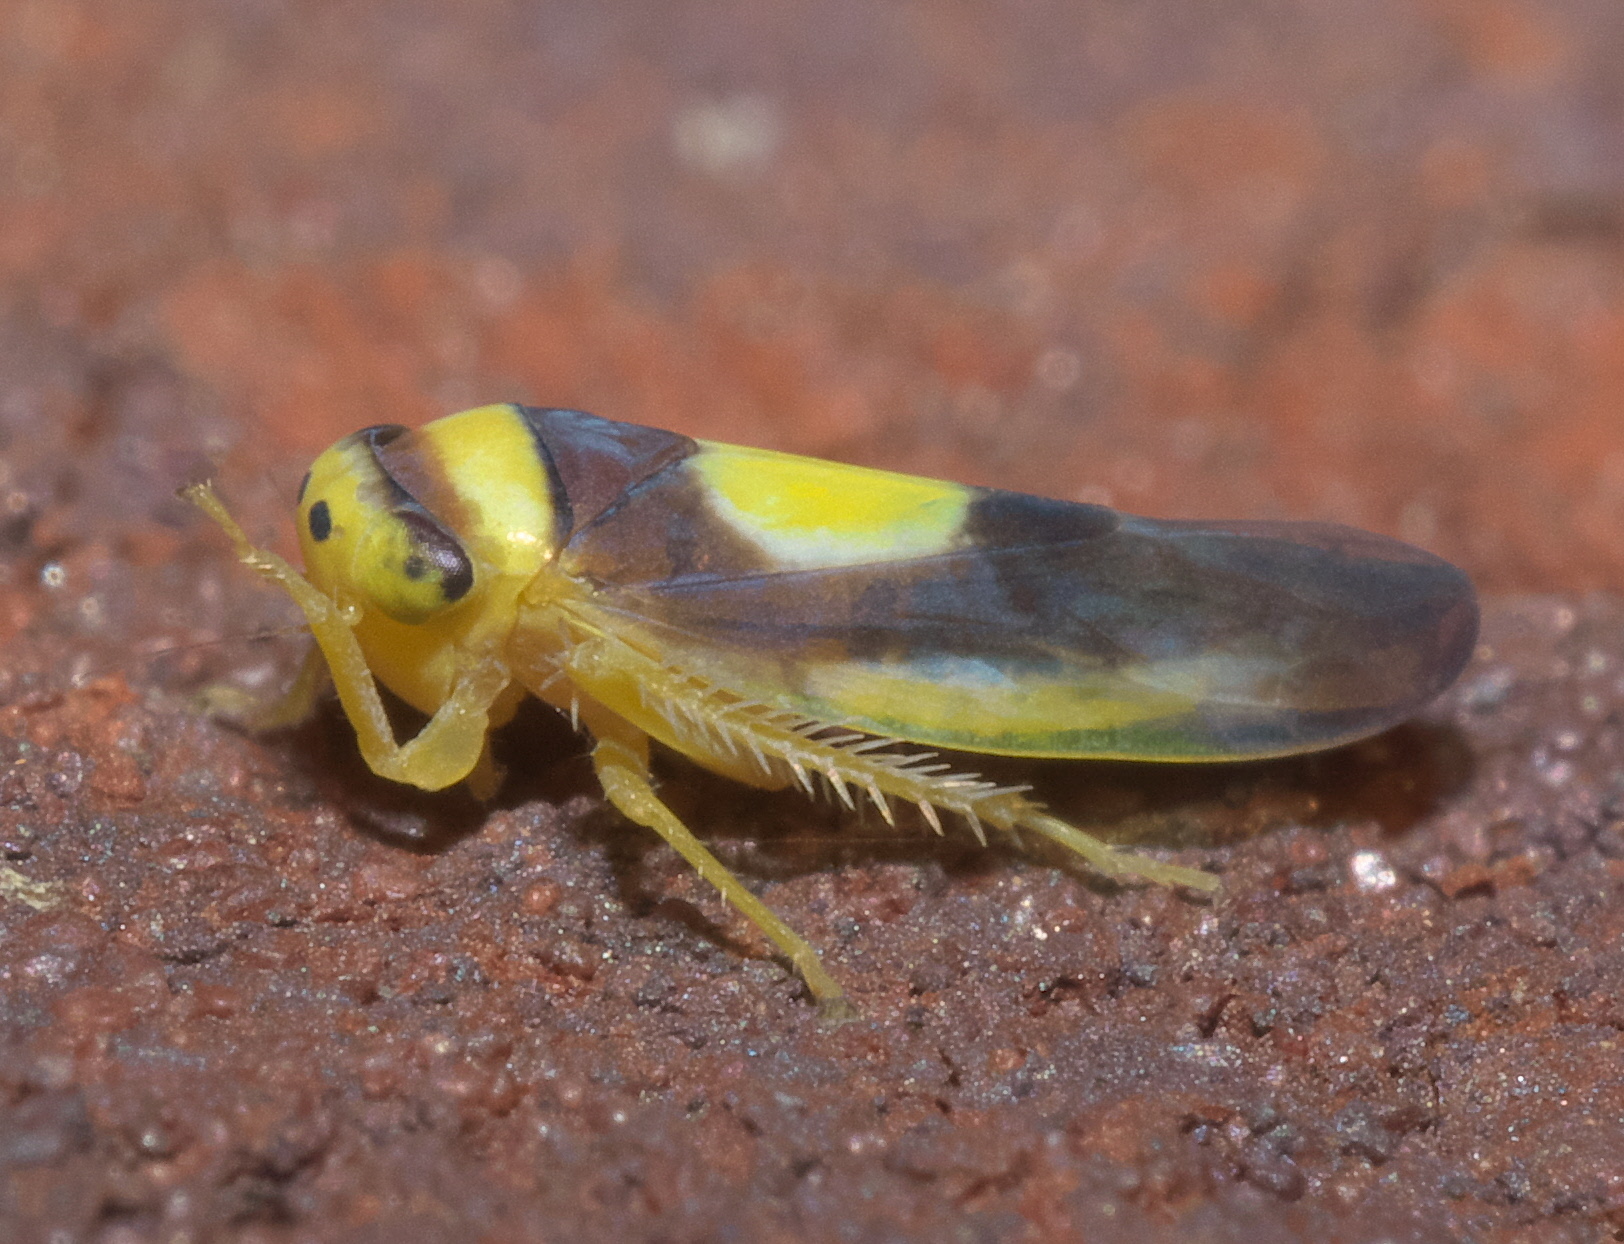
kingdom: Animalia
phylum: Arthropoda
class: Insecta
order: Hemiptera
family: Cicadellidae
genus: Colladonus
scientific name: Colladonus clitellarius
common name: The saddleback leafhopper
